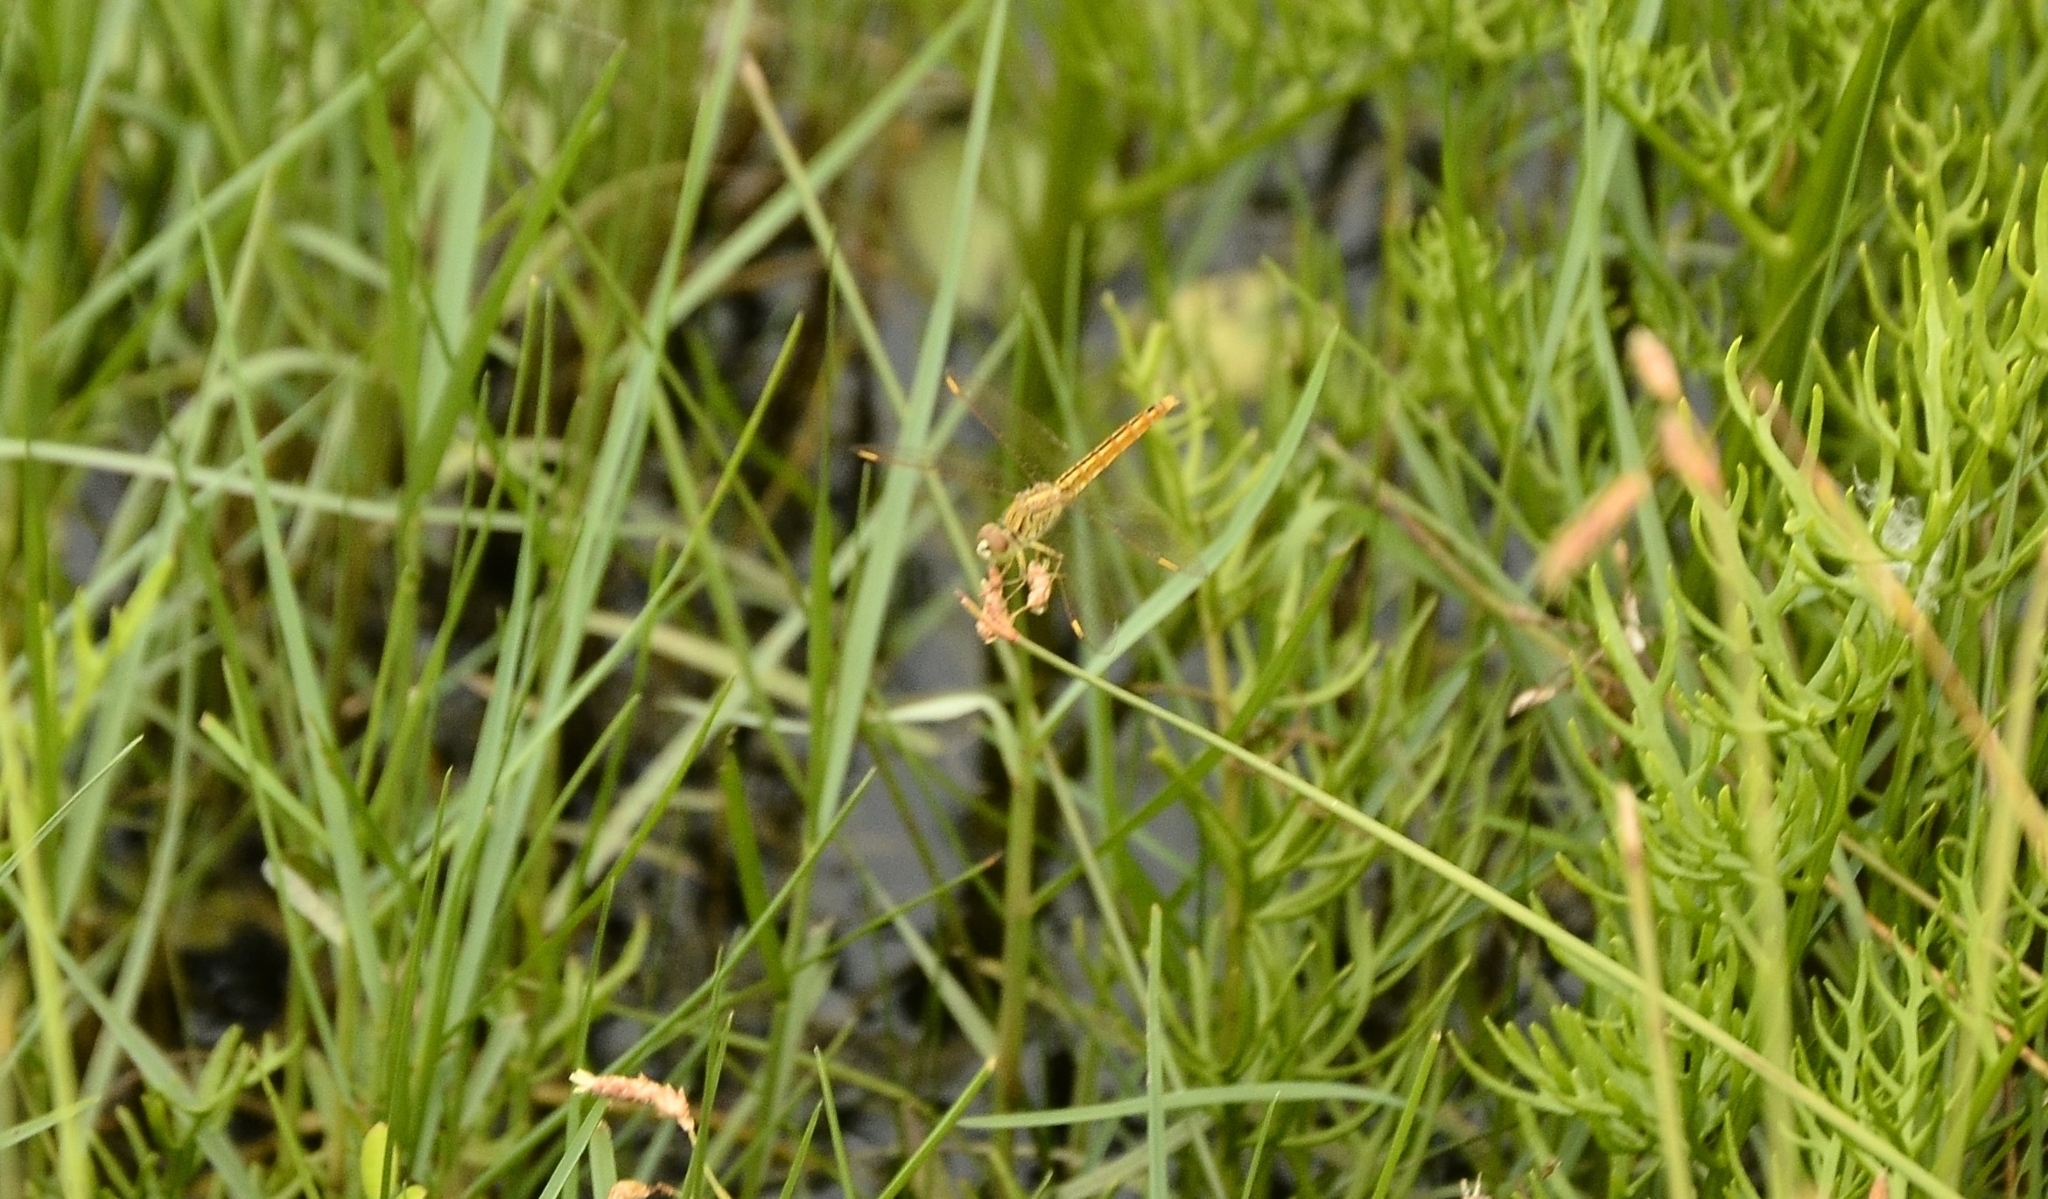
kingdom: Animalia
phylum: Arthropoda
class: Insecta
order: Odonata
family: Libellulidae
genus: Brachythemis
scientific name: Brachythemis contaminata
